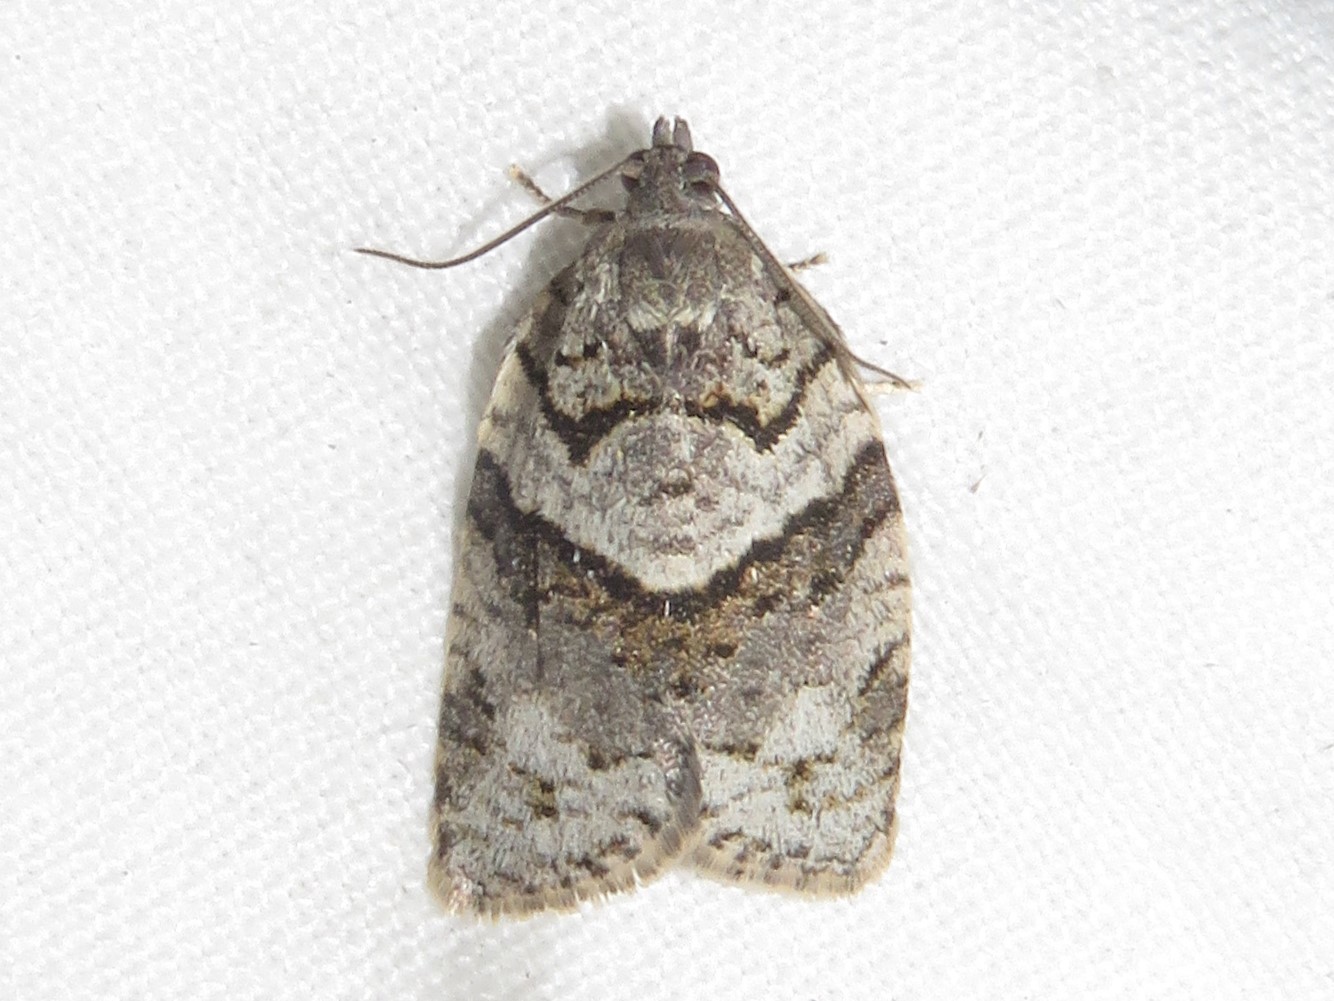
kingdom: Animalia
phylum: Arthropoda
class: Insecta
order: Lepidoptera
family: Tortricidae
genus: Syndemis
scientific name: Syndemis afflictana
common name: Gray leafroller moth
